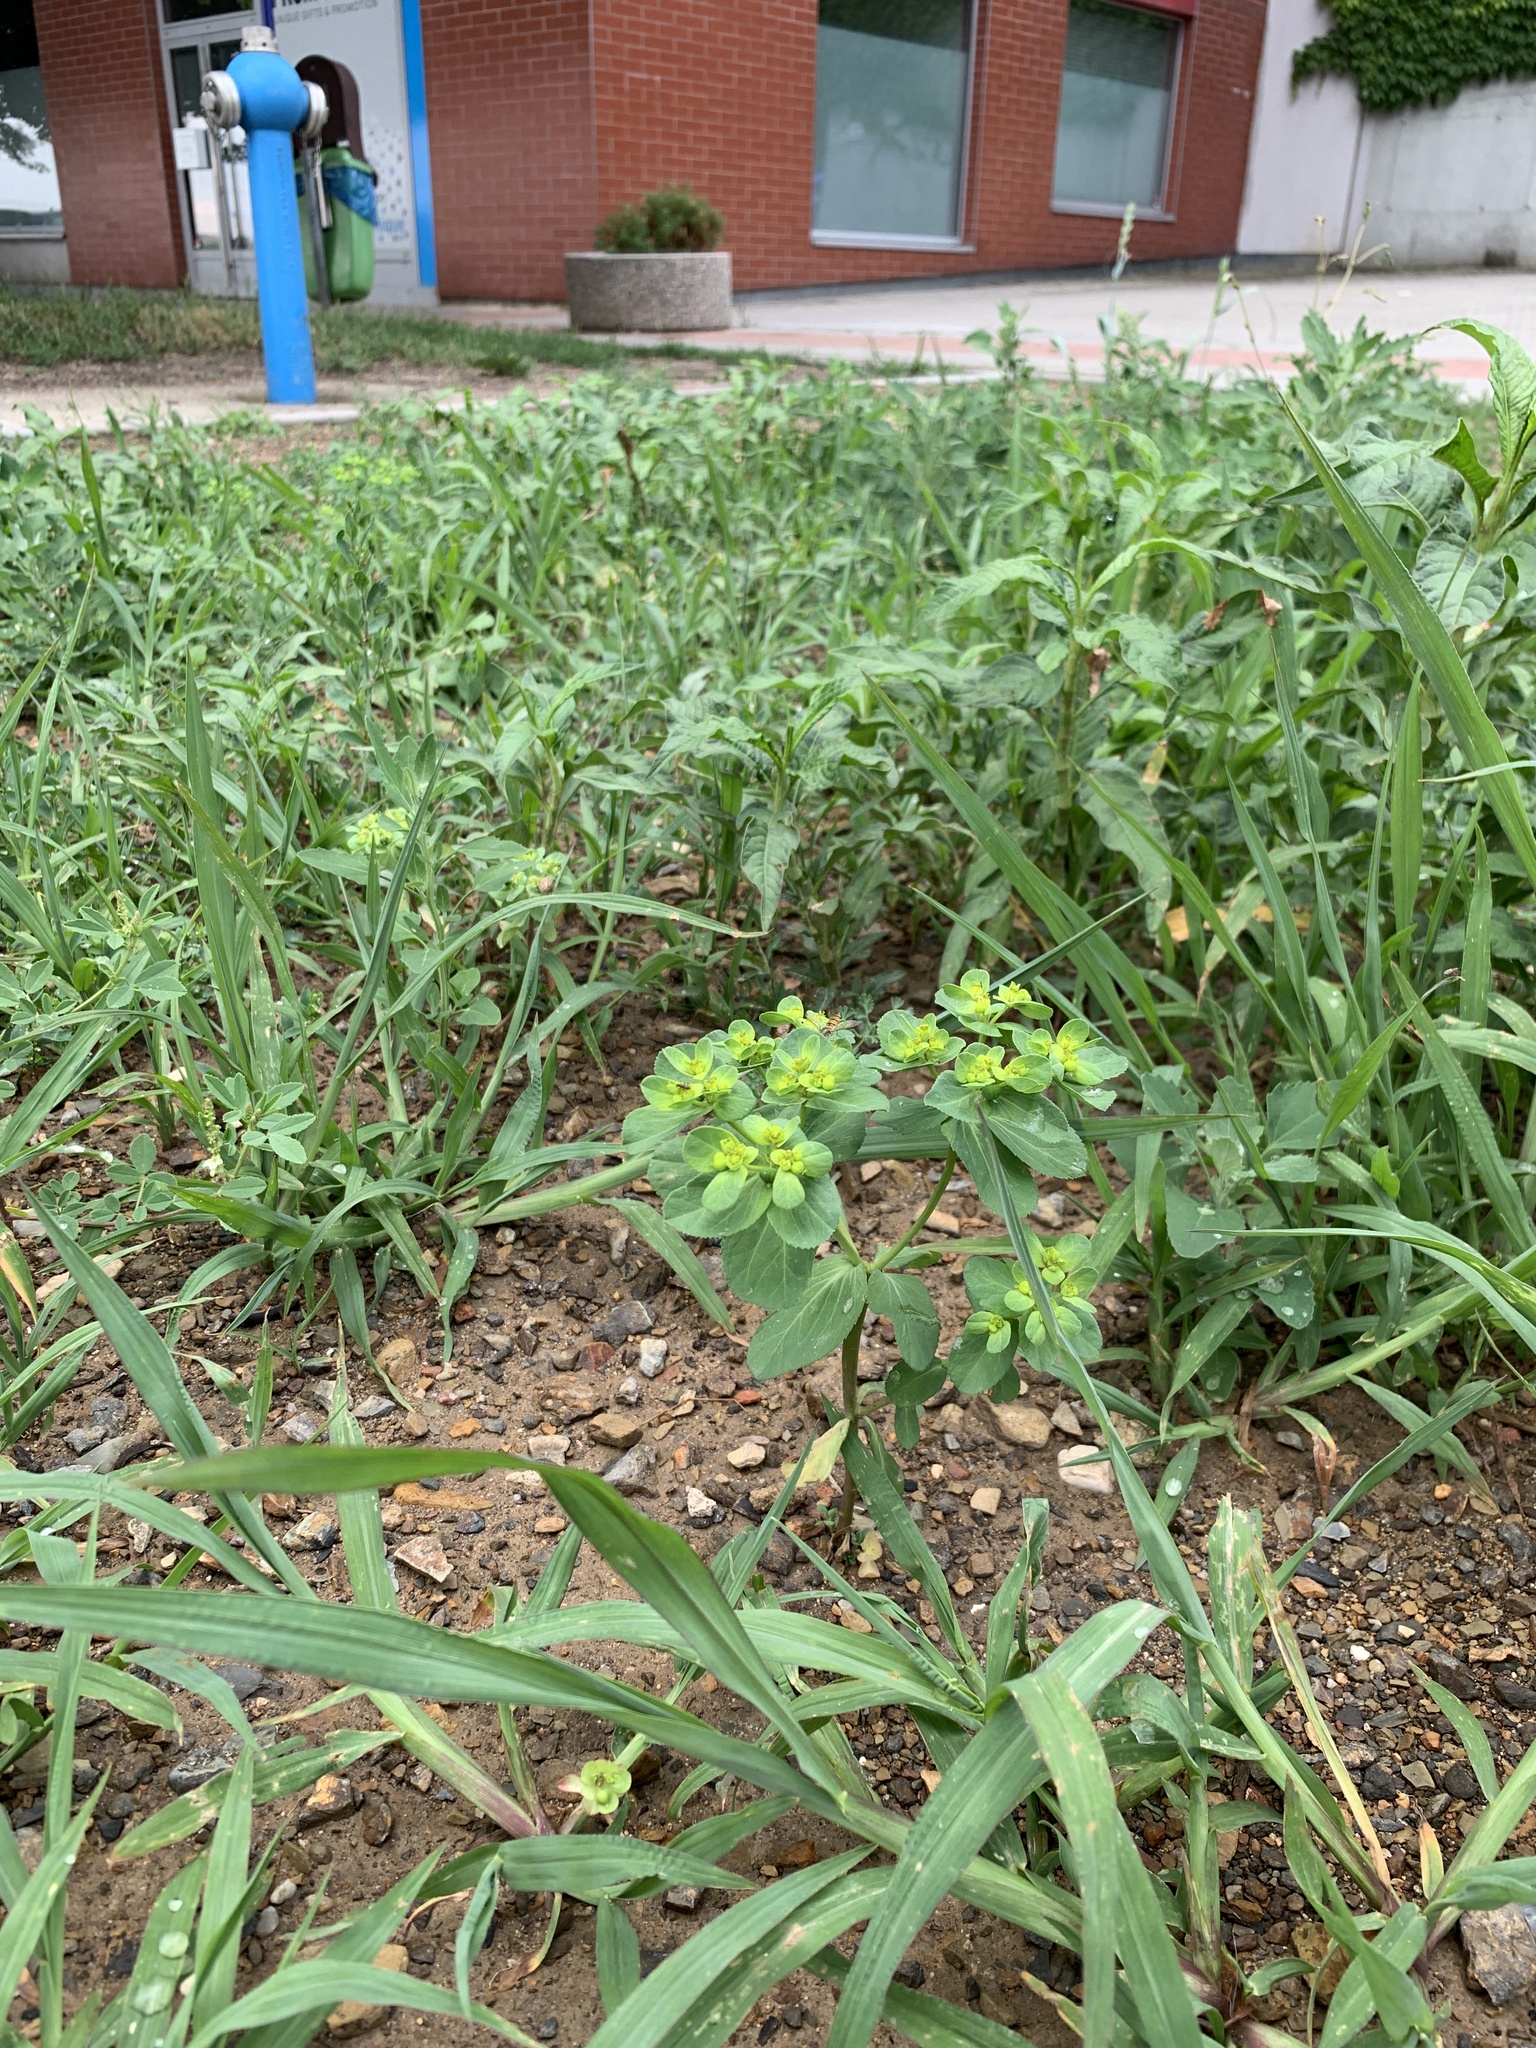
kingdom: Plantae
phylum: Tracheophyta
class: Magnoliopsida
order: Malpighiales
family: Euphorbiaceae
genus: Euphorbia
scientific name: Euphorbia helioscopia
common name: Sun spurge
